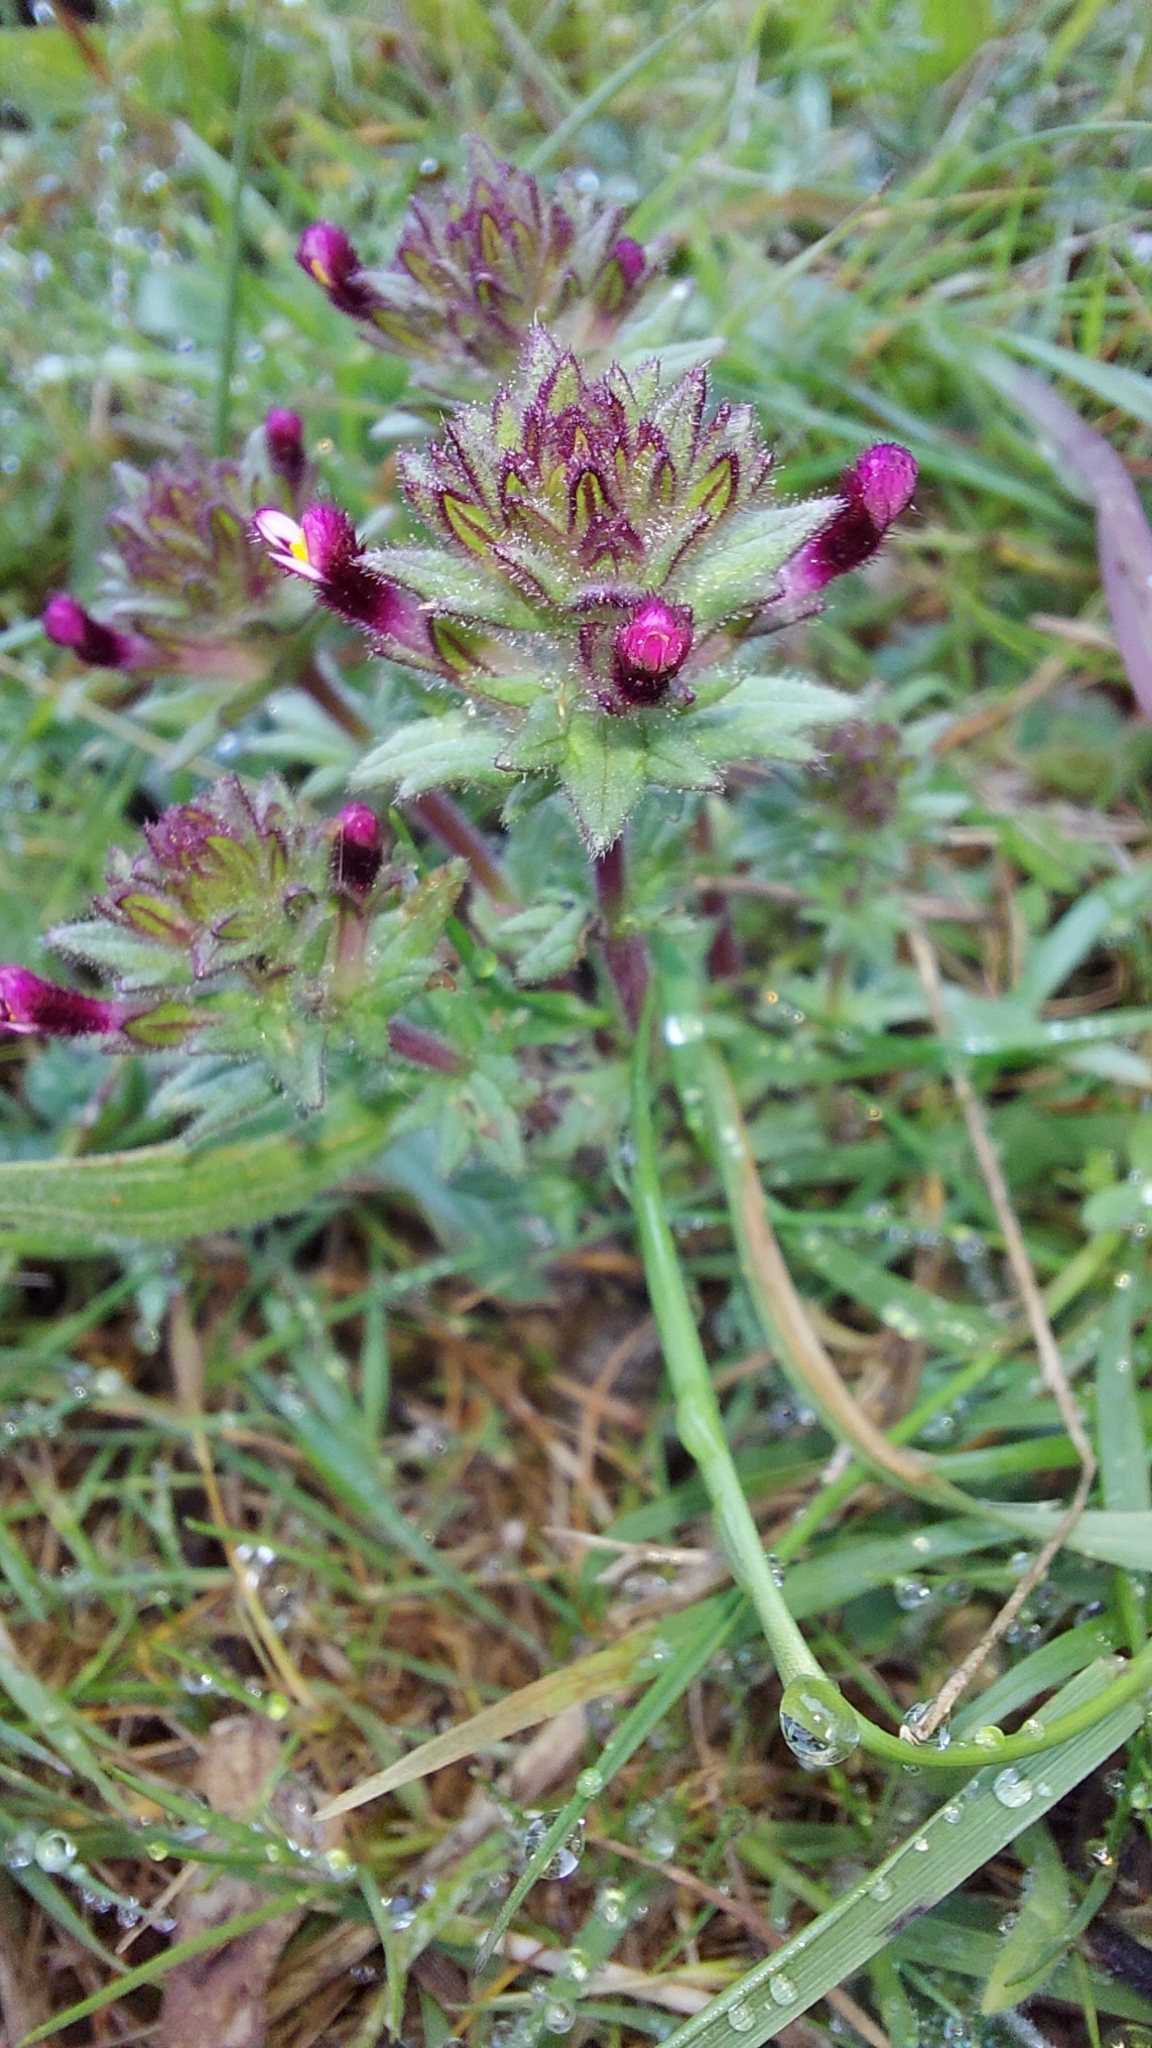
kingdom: Plantae
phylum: Tracheophyta
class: Magnoliopsida
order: Lamiales
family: Orobanchaceae
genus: Parentucellia
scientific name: Parentucellia latifolia
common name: Broadleaf glandweed
